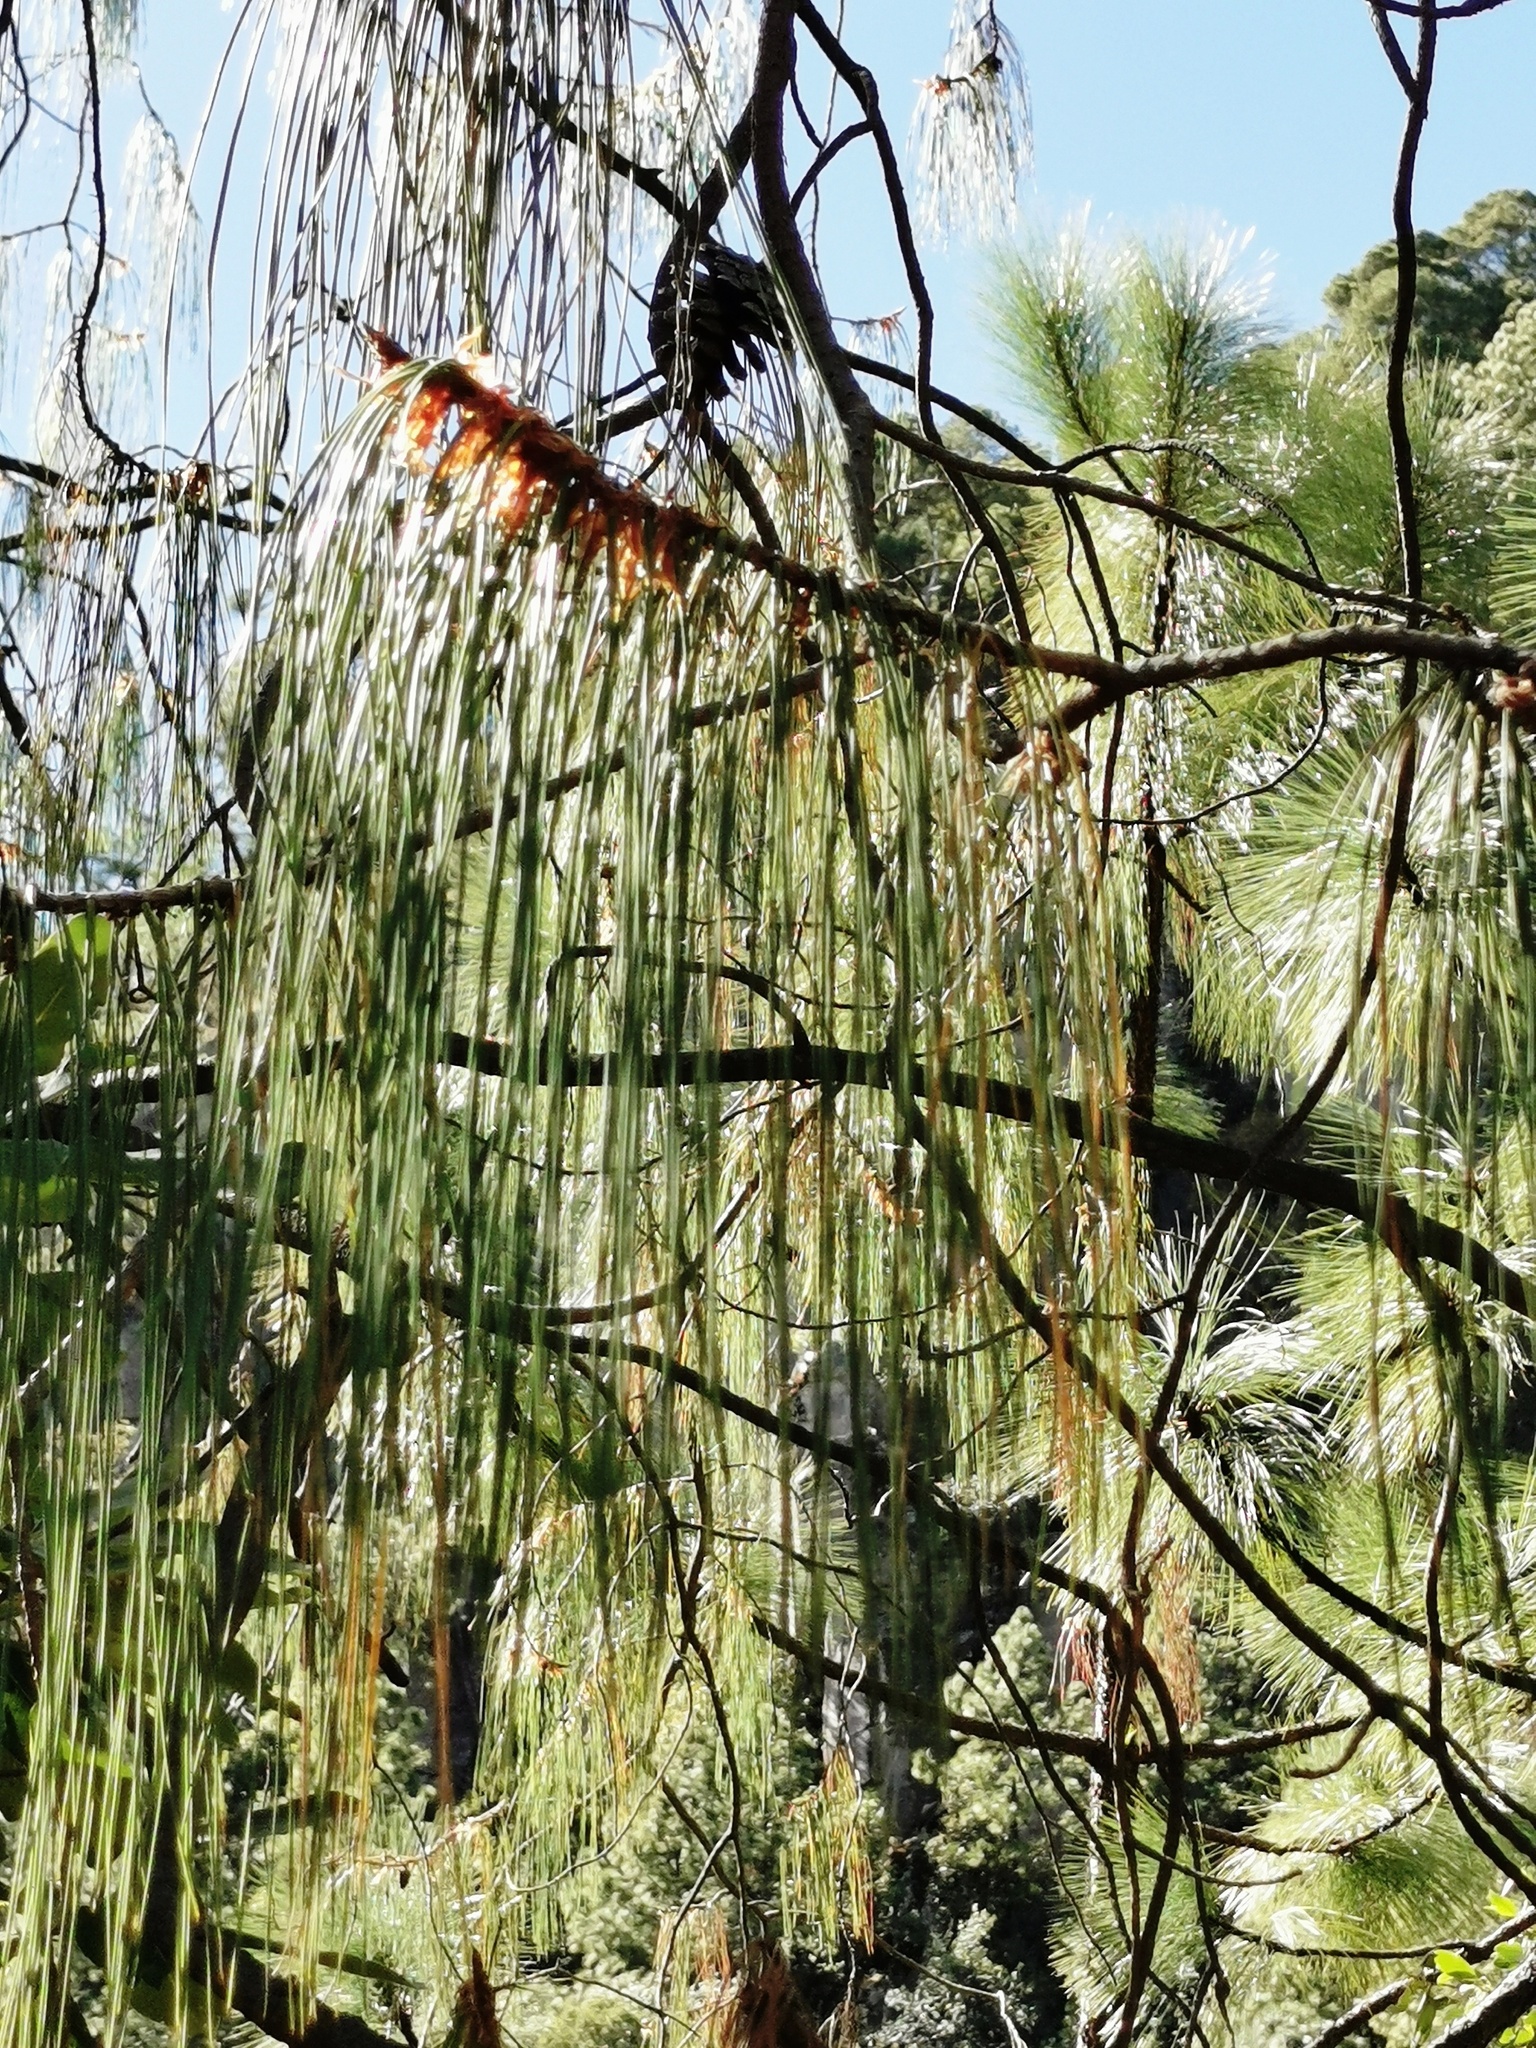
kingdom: Plantae
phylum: Tracheophyta
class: Pinopsida
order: Pinales
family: Pinaceae
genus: Pinus
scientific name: Pinus lumholtzii
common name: Lumholtz's pine
